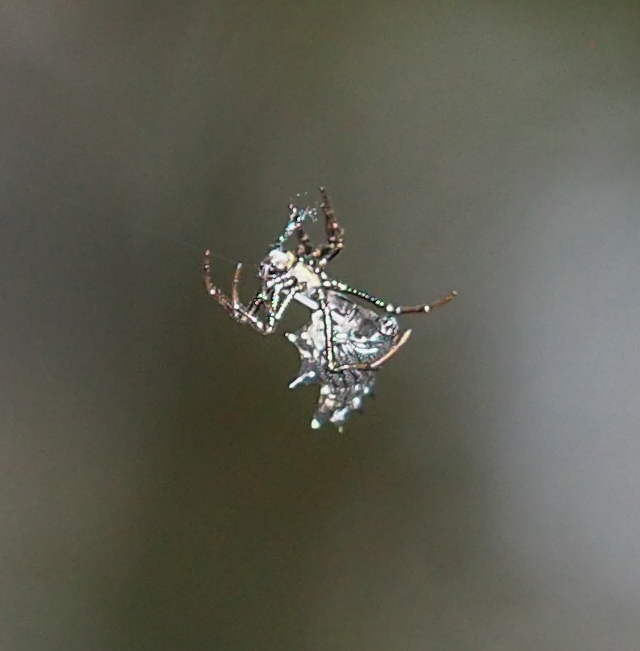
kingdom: Animalia
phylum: Arthropoda
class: Arachnida
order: Araneae
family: Araneidae
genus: Micrathena
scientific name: Micrathena gracilis
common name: Orb weavers
